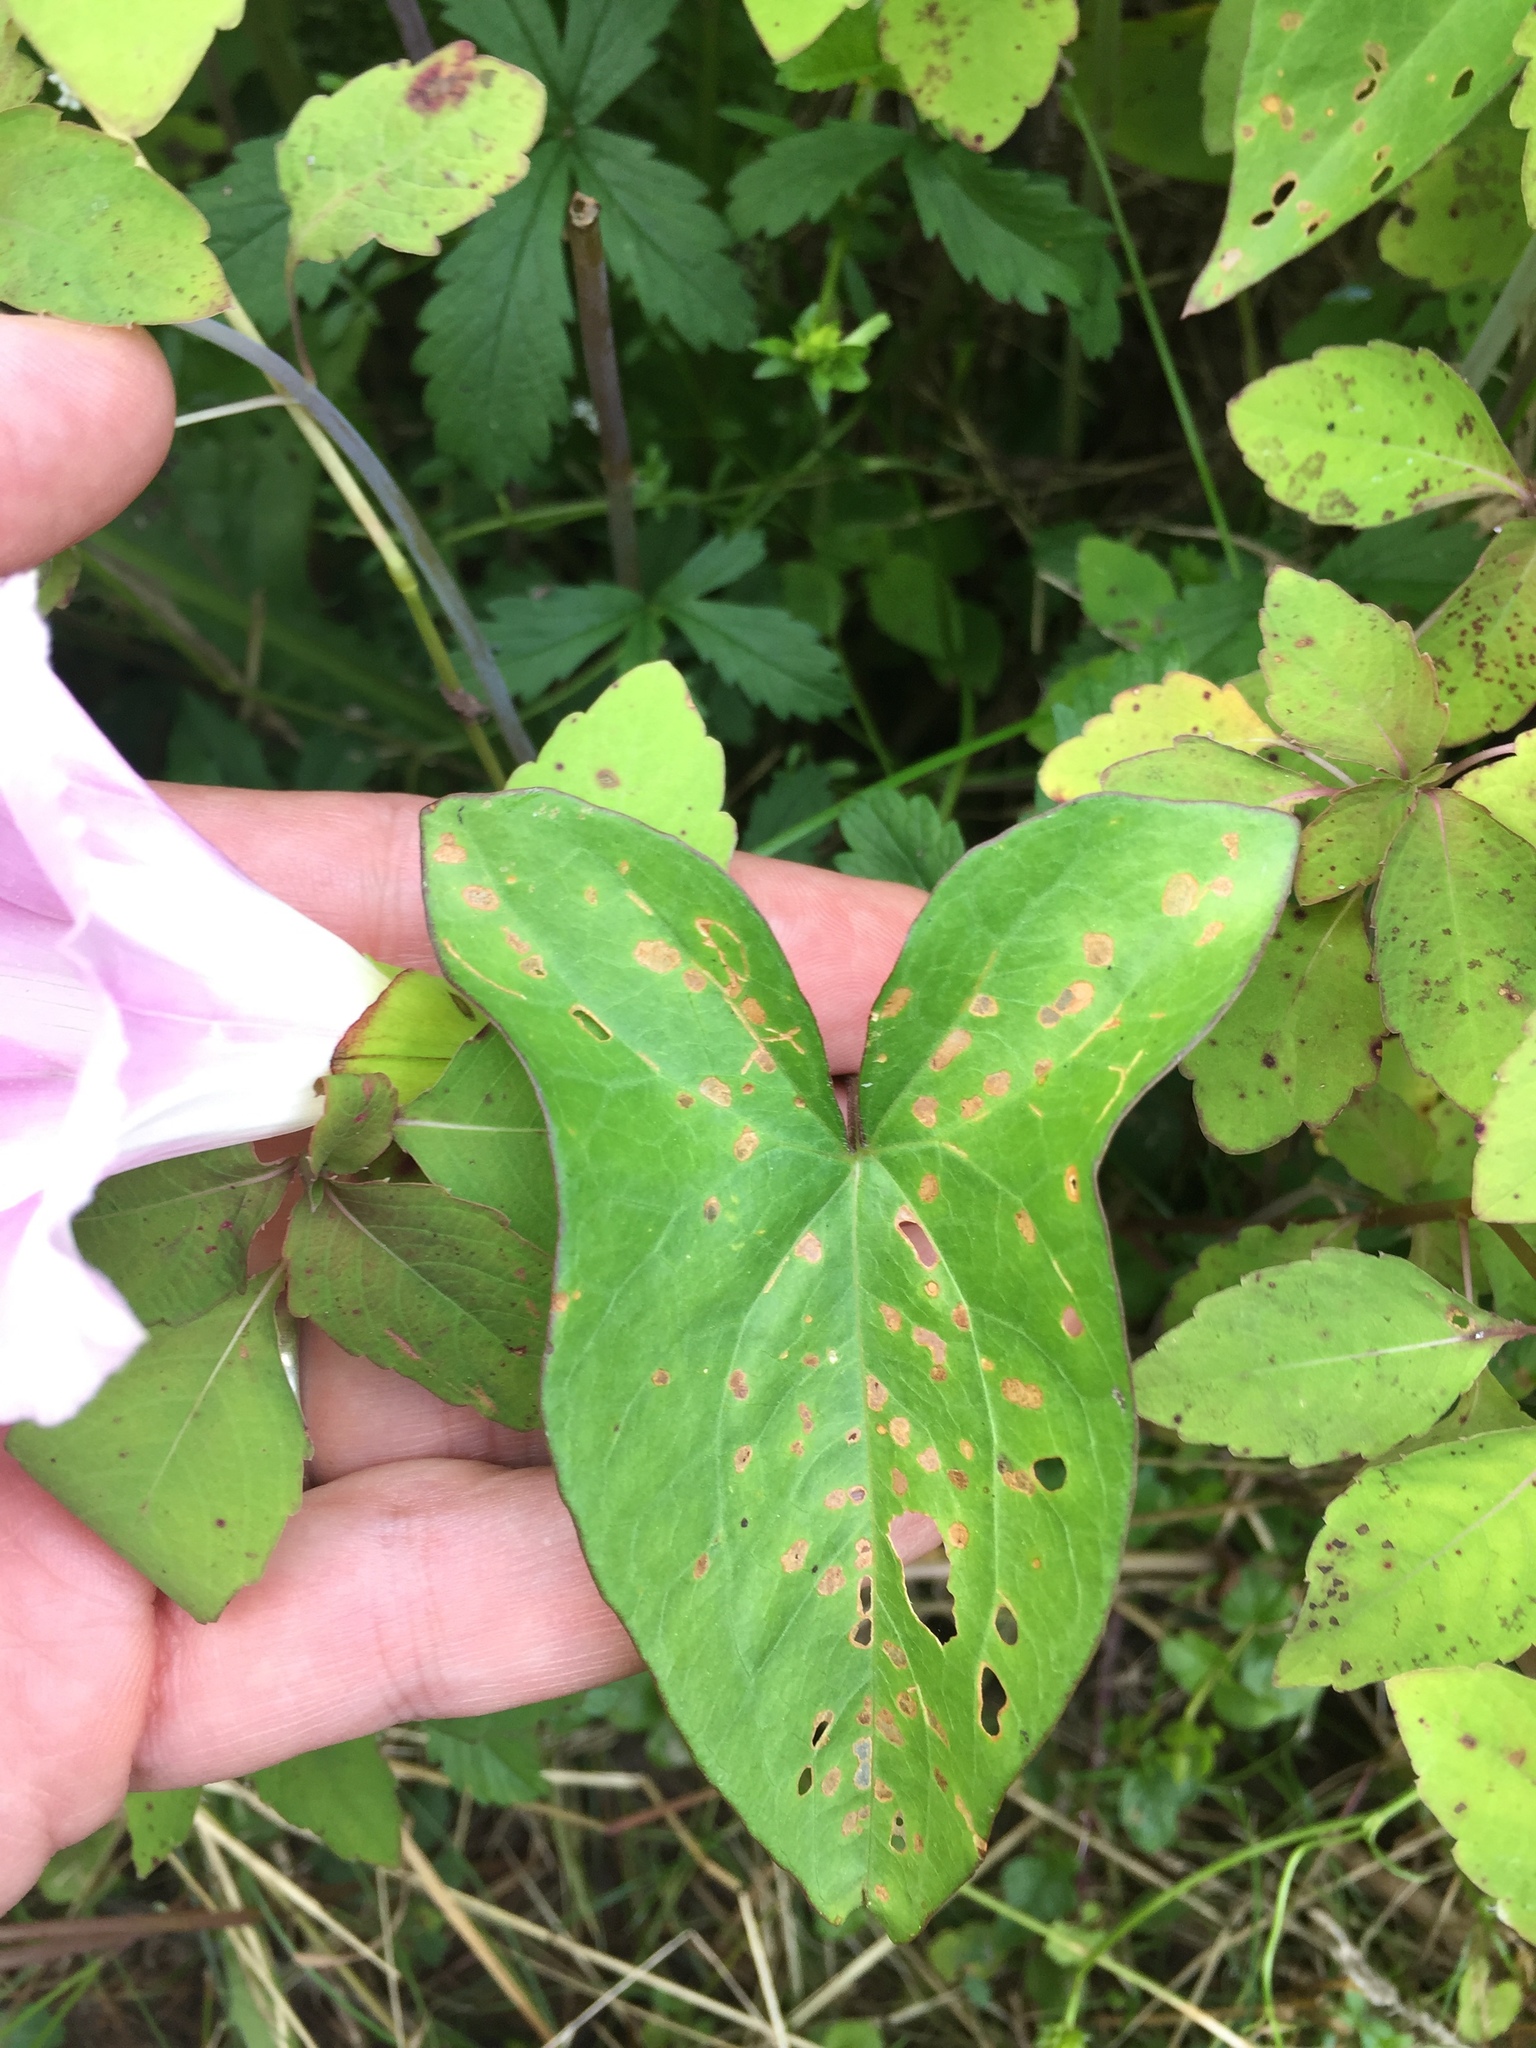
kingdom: Plantae
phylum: Tracheophyta
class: Magnoliopsida
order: Solanales
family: Convolvulaceae
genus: Calystegia
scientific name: Calystegia sepium
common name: Hedge bindweed
